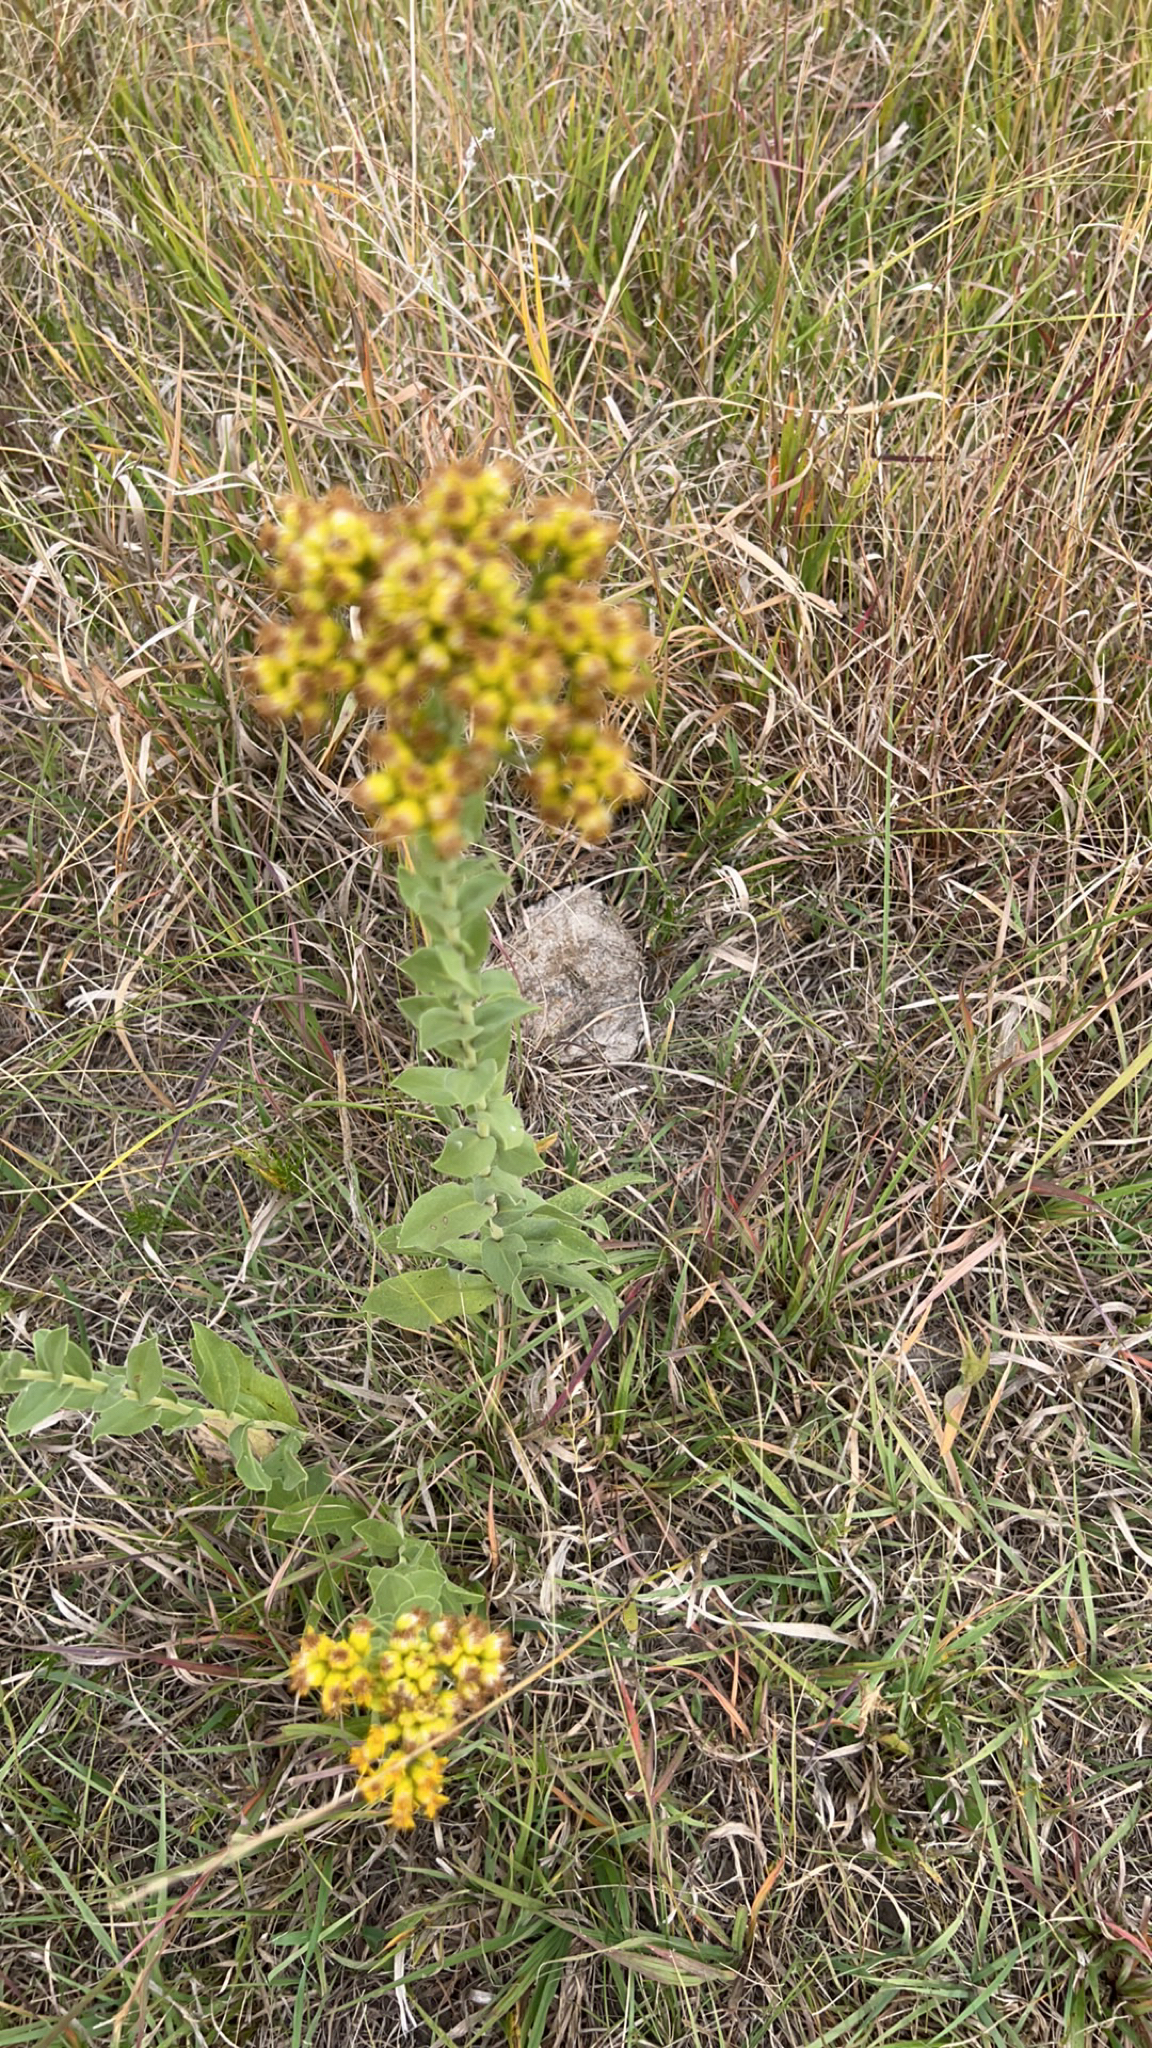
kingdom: Plantae
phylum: Tracheophyta
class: Magnoliopsida
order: Asterales
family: Asteraceae
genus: Solidago
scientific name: Solidago rigida
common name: Rigid goldenrod
